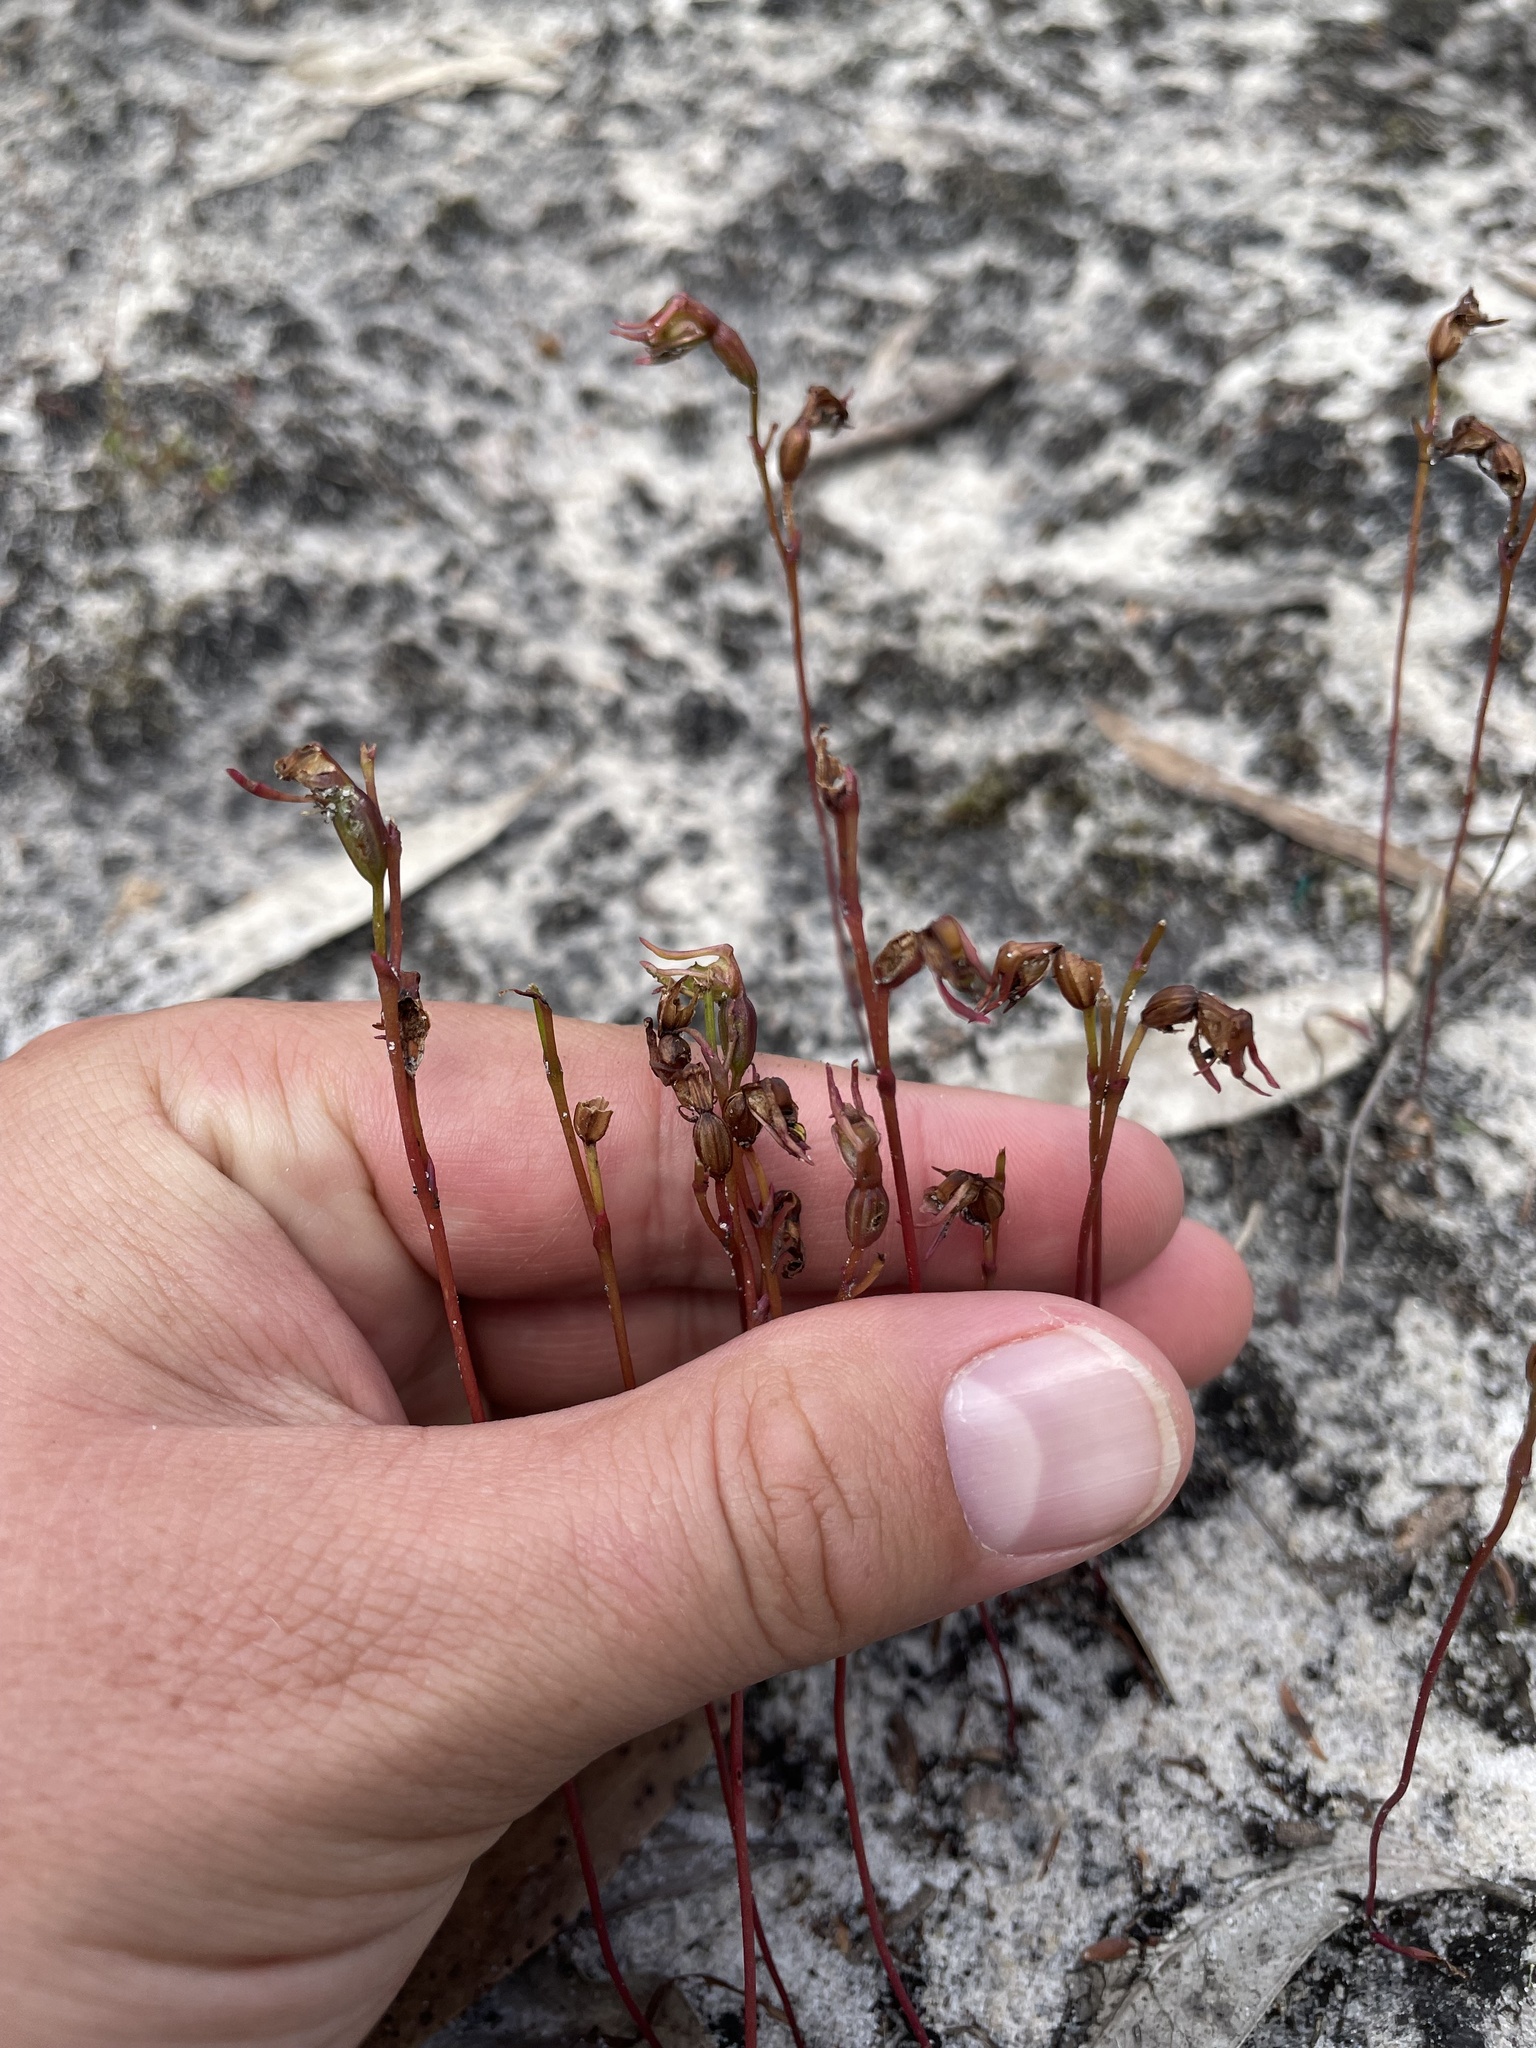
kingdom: Plantae
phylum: Tracheophyta
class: Liliopsida
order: Asparagales
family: Orchidaceae
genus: Caleana
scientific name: Caleana minor
